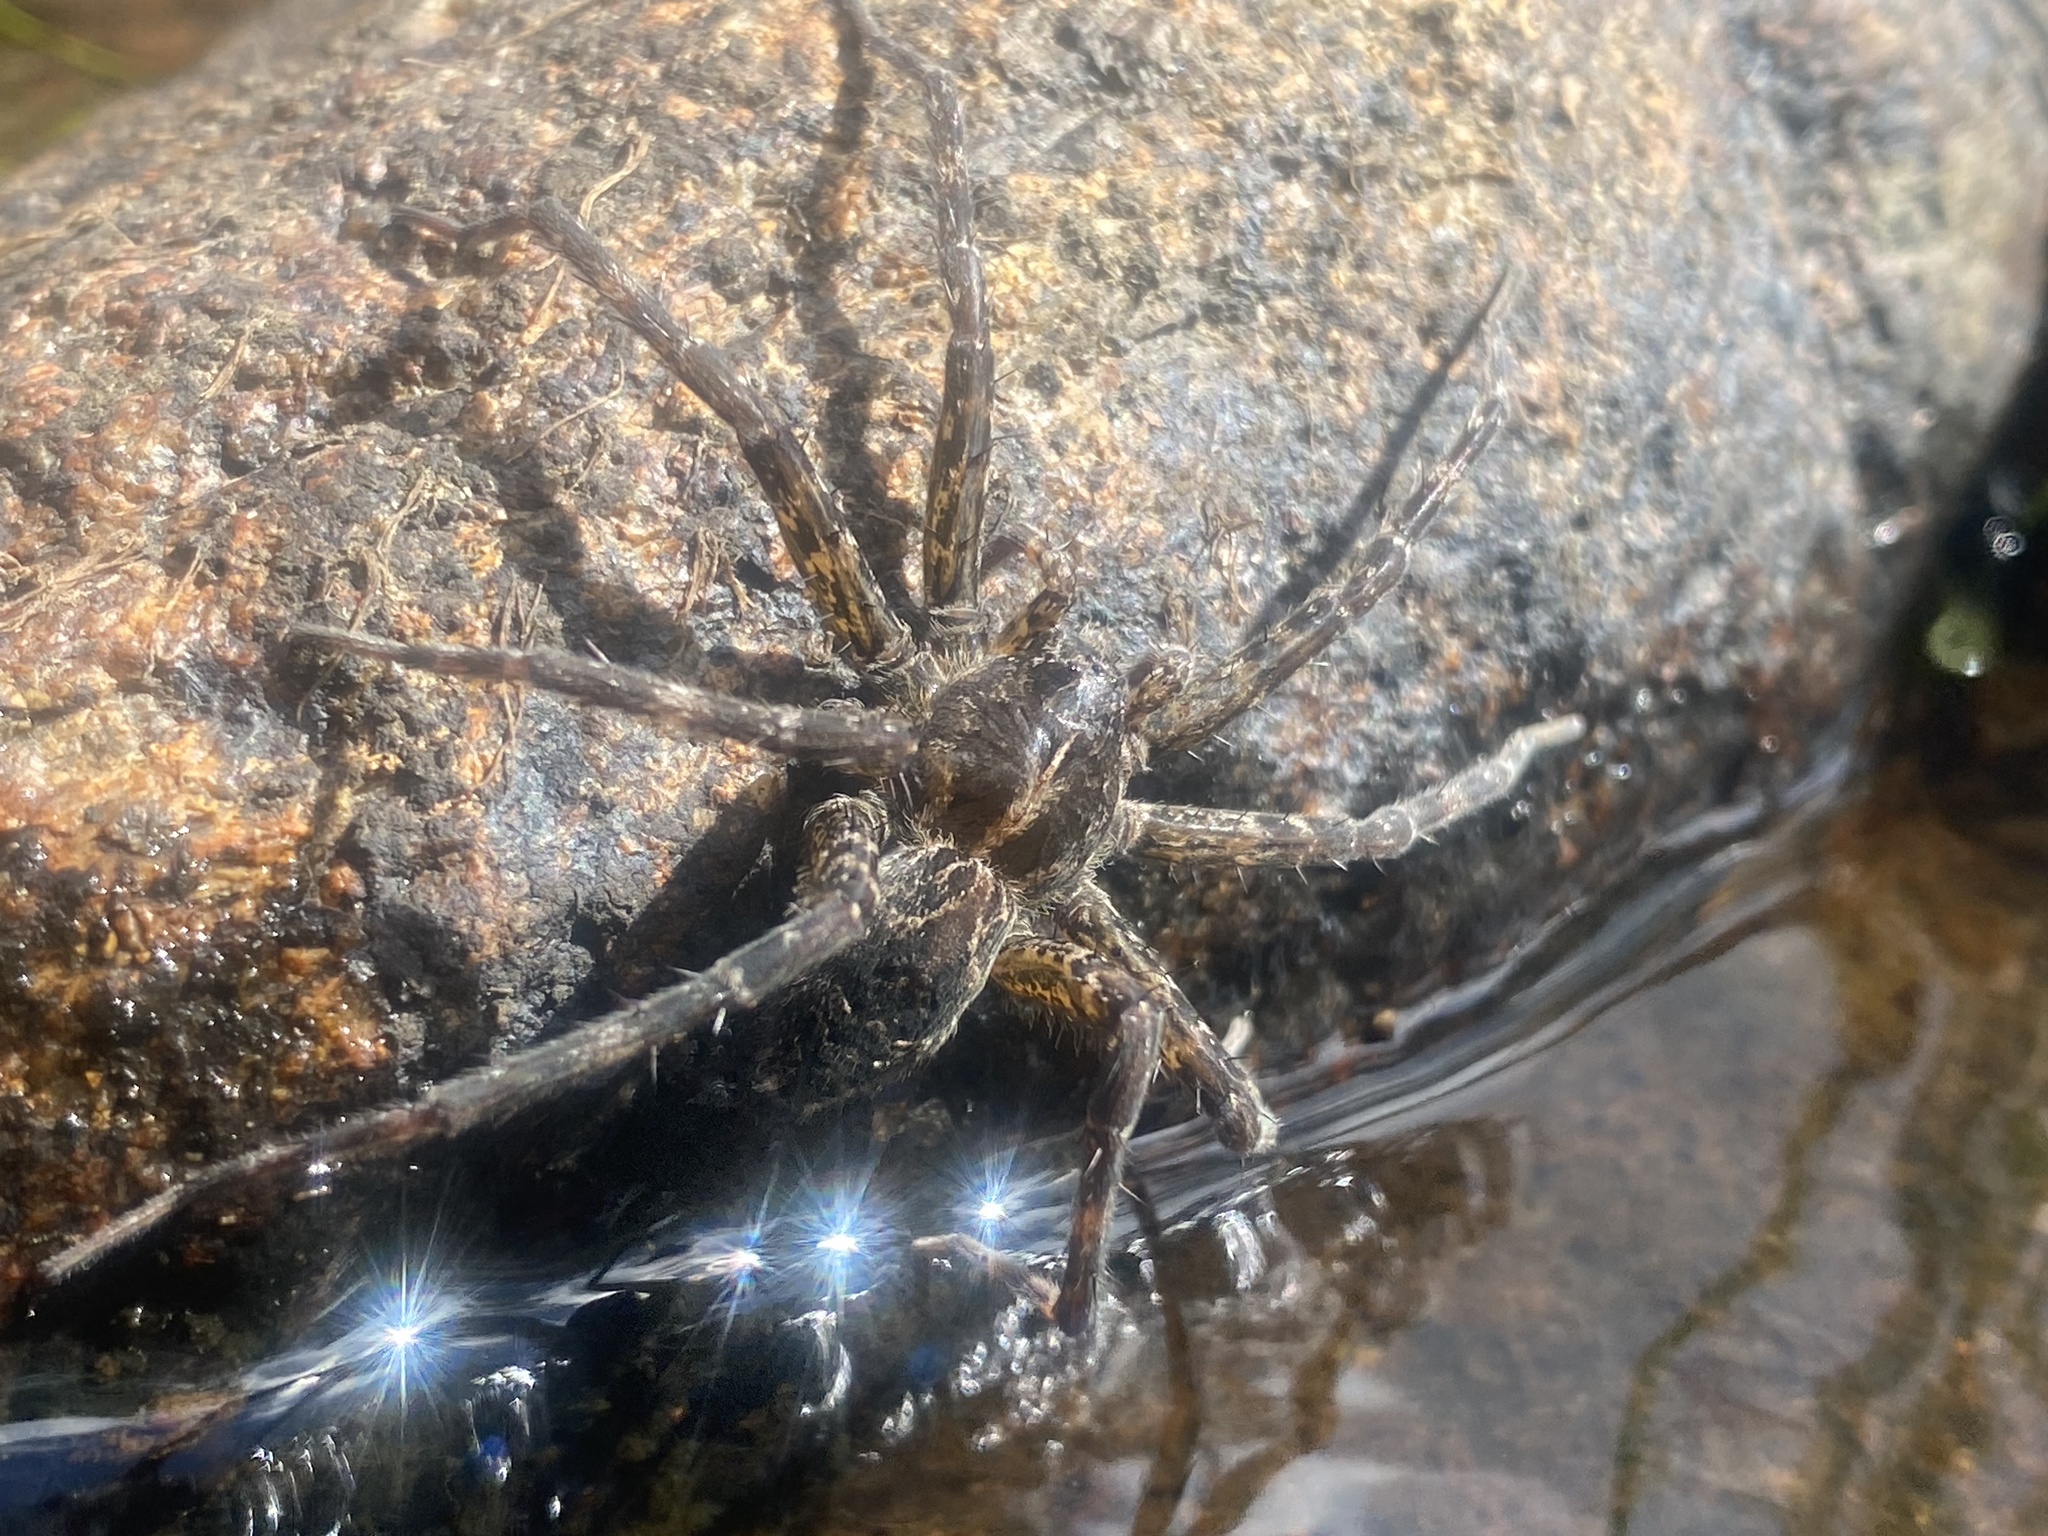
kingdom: Animalia
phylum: Arthropoda
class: Arachnida
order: Araneae
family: Pisauridae
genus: Dolomedes
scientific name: Dolomedes scriptus
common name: Striped fishing spider
